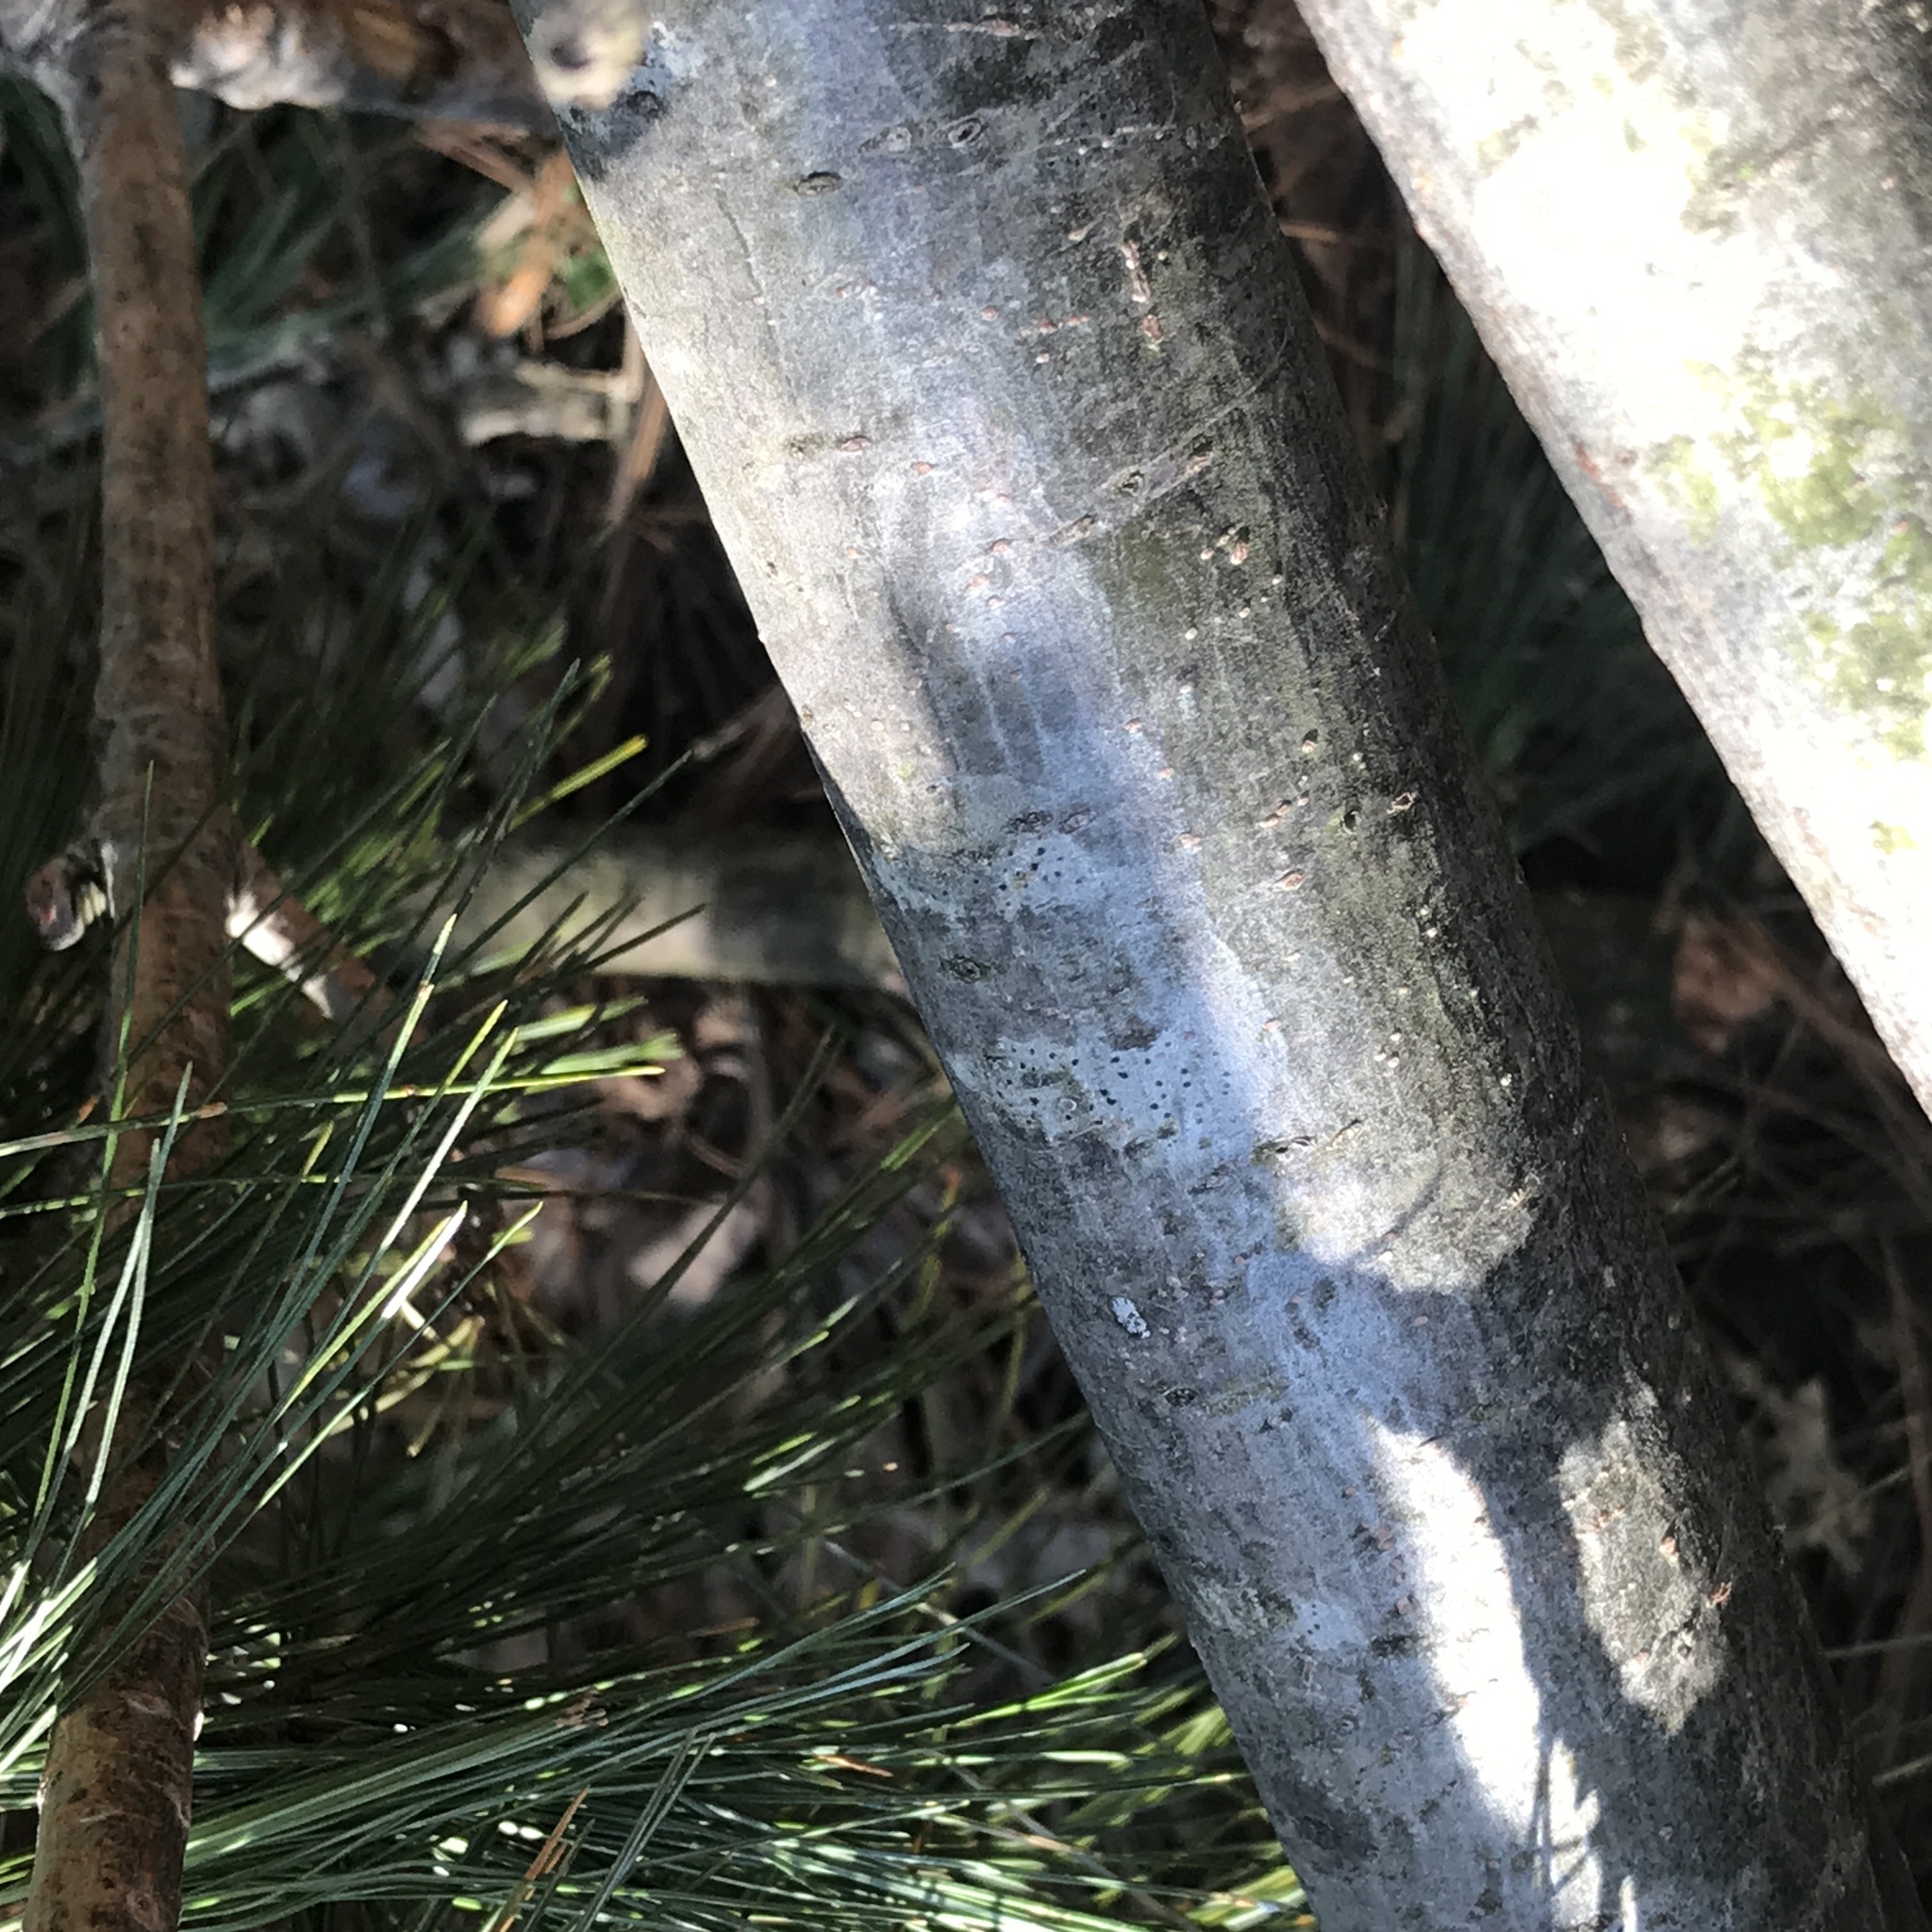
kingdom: Fungi
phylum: Ascomycota
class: Arthoniomycetes
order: Arthoniales
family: Arthoniaceae
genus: Arthonia
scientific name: Arthonia hypobela
